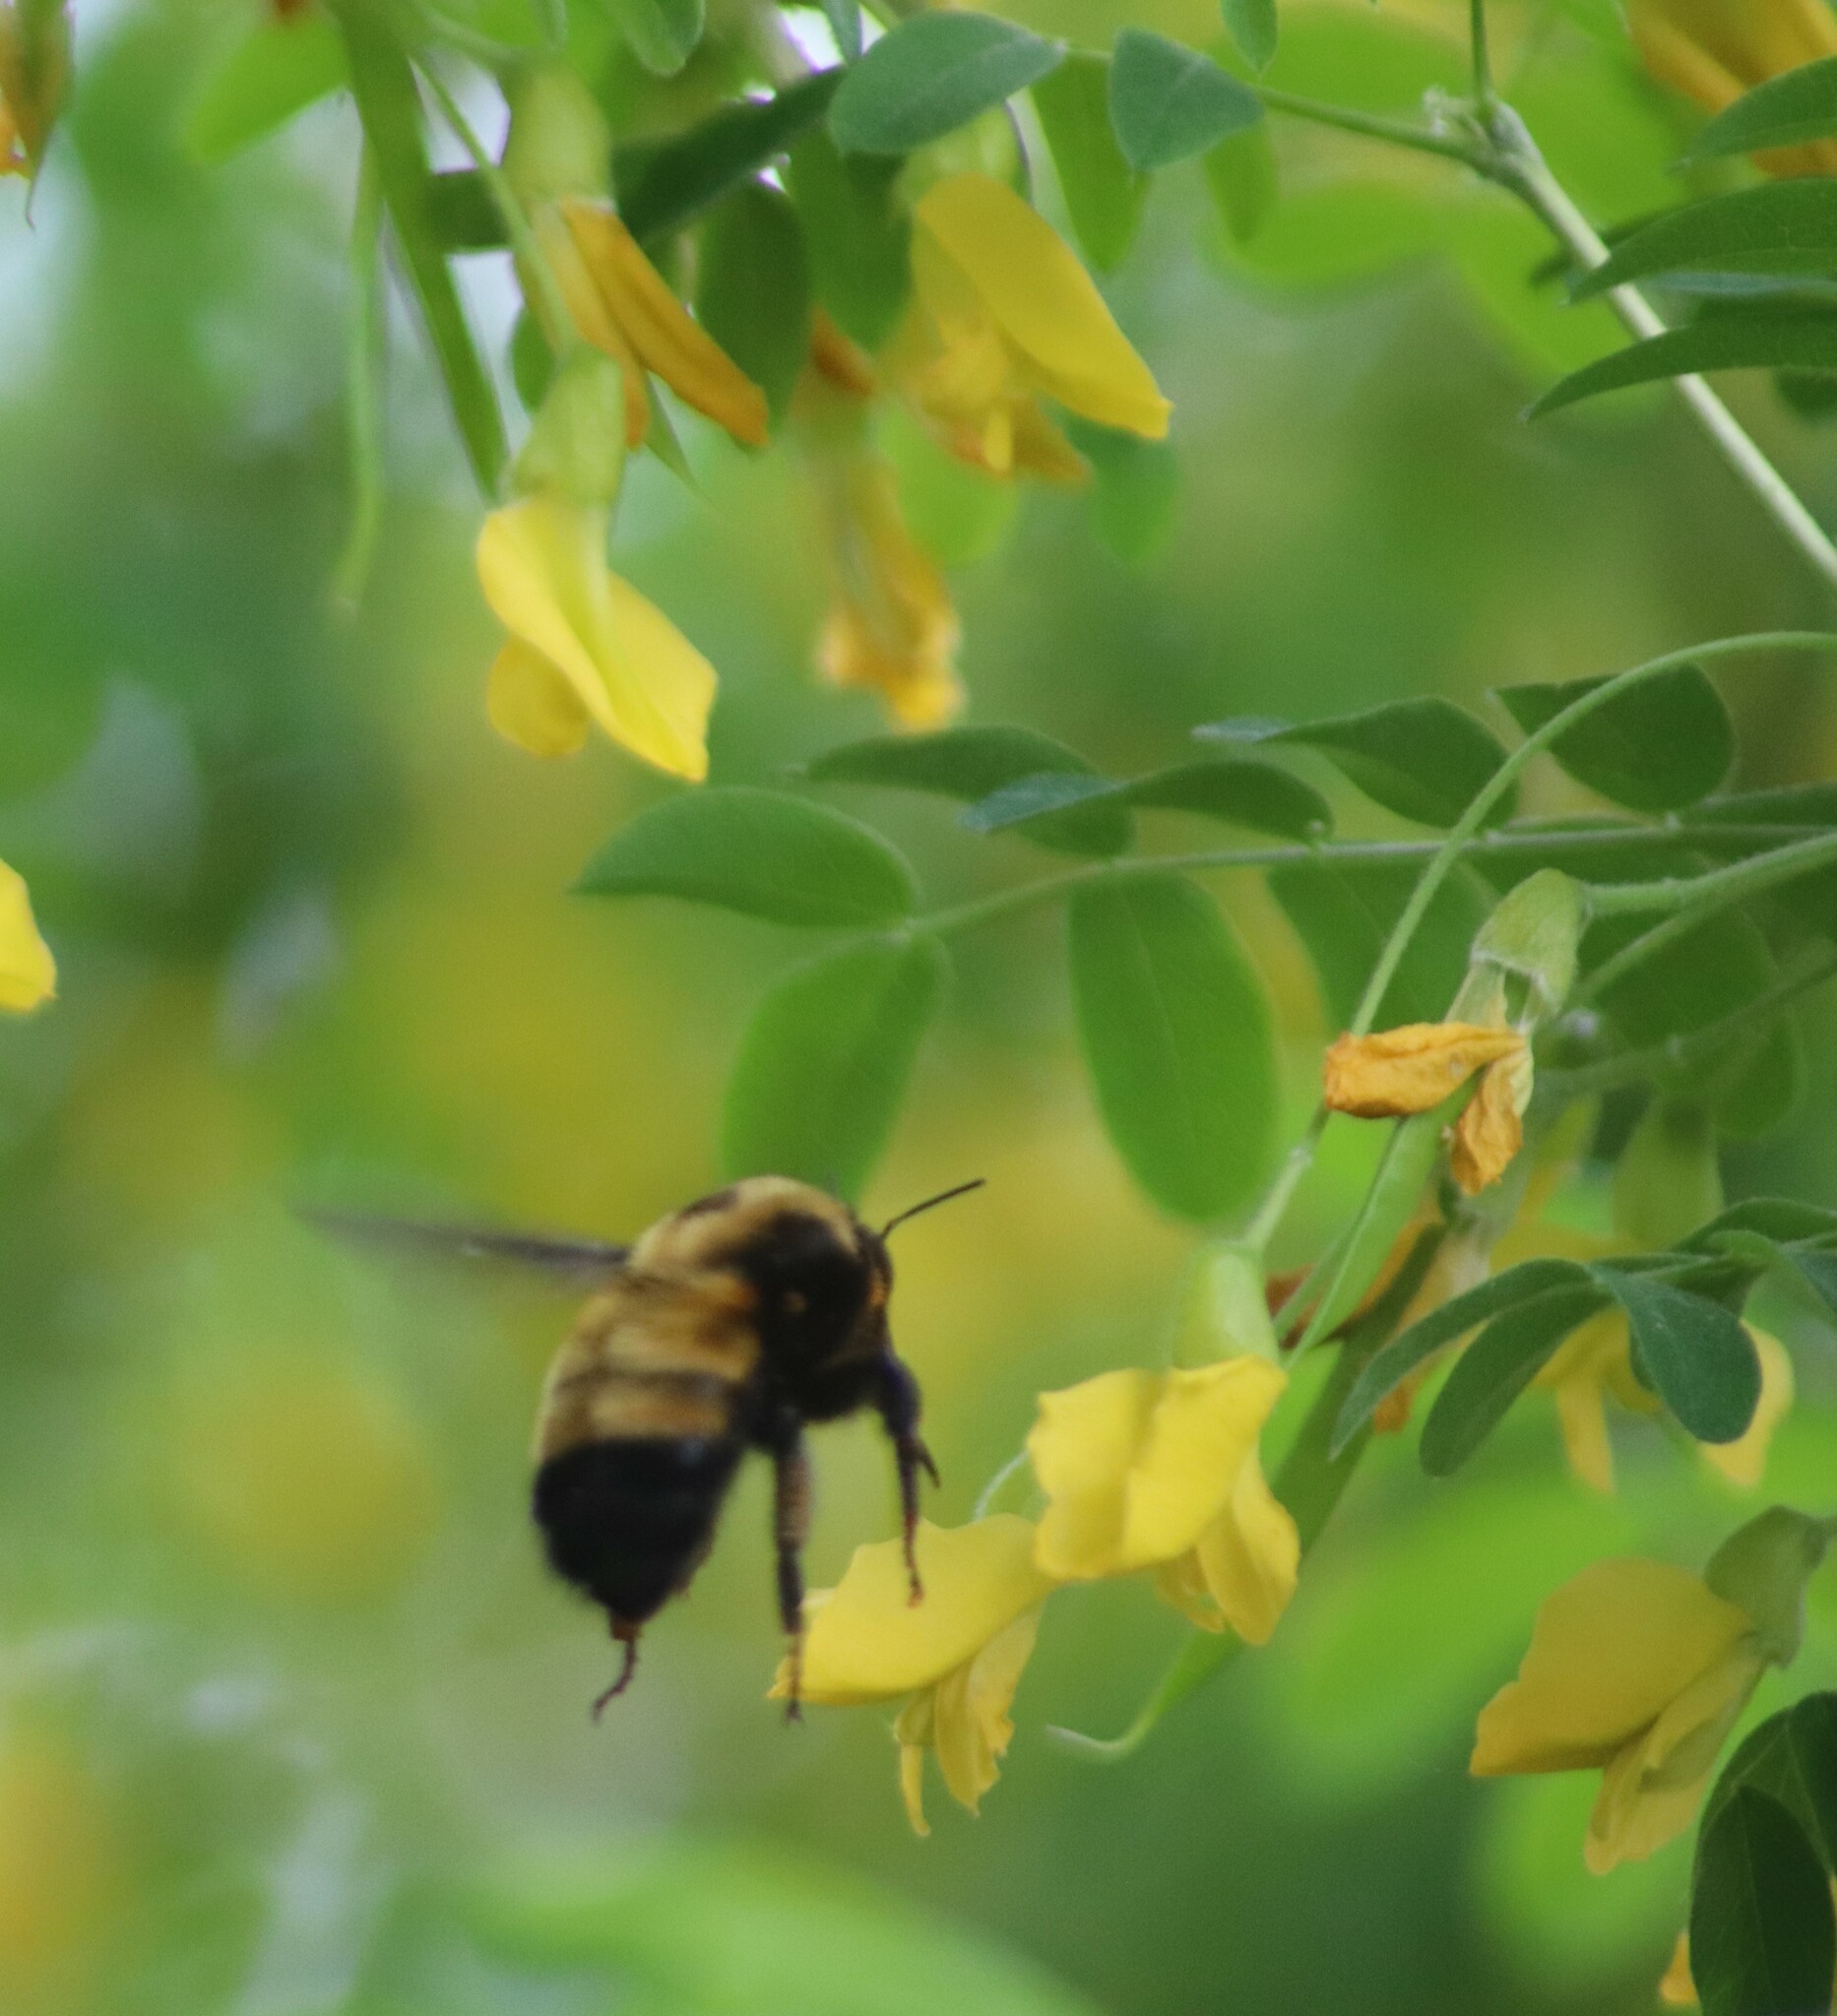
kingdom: Animalia
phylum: Arthropoda
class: Insecta
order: Hymenoptera
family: Apidae
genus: Bombus
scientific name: Bombus nevadensis
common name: Nevada bumble bee
